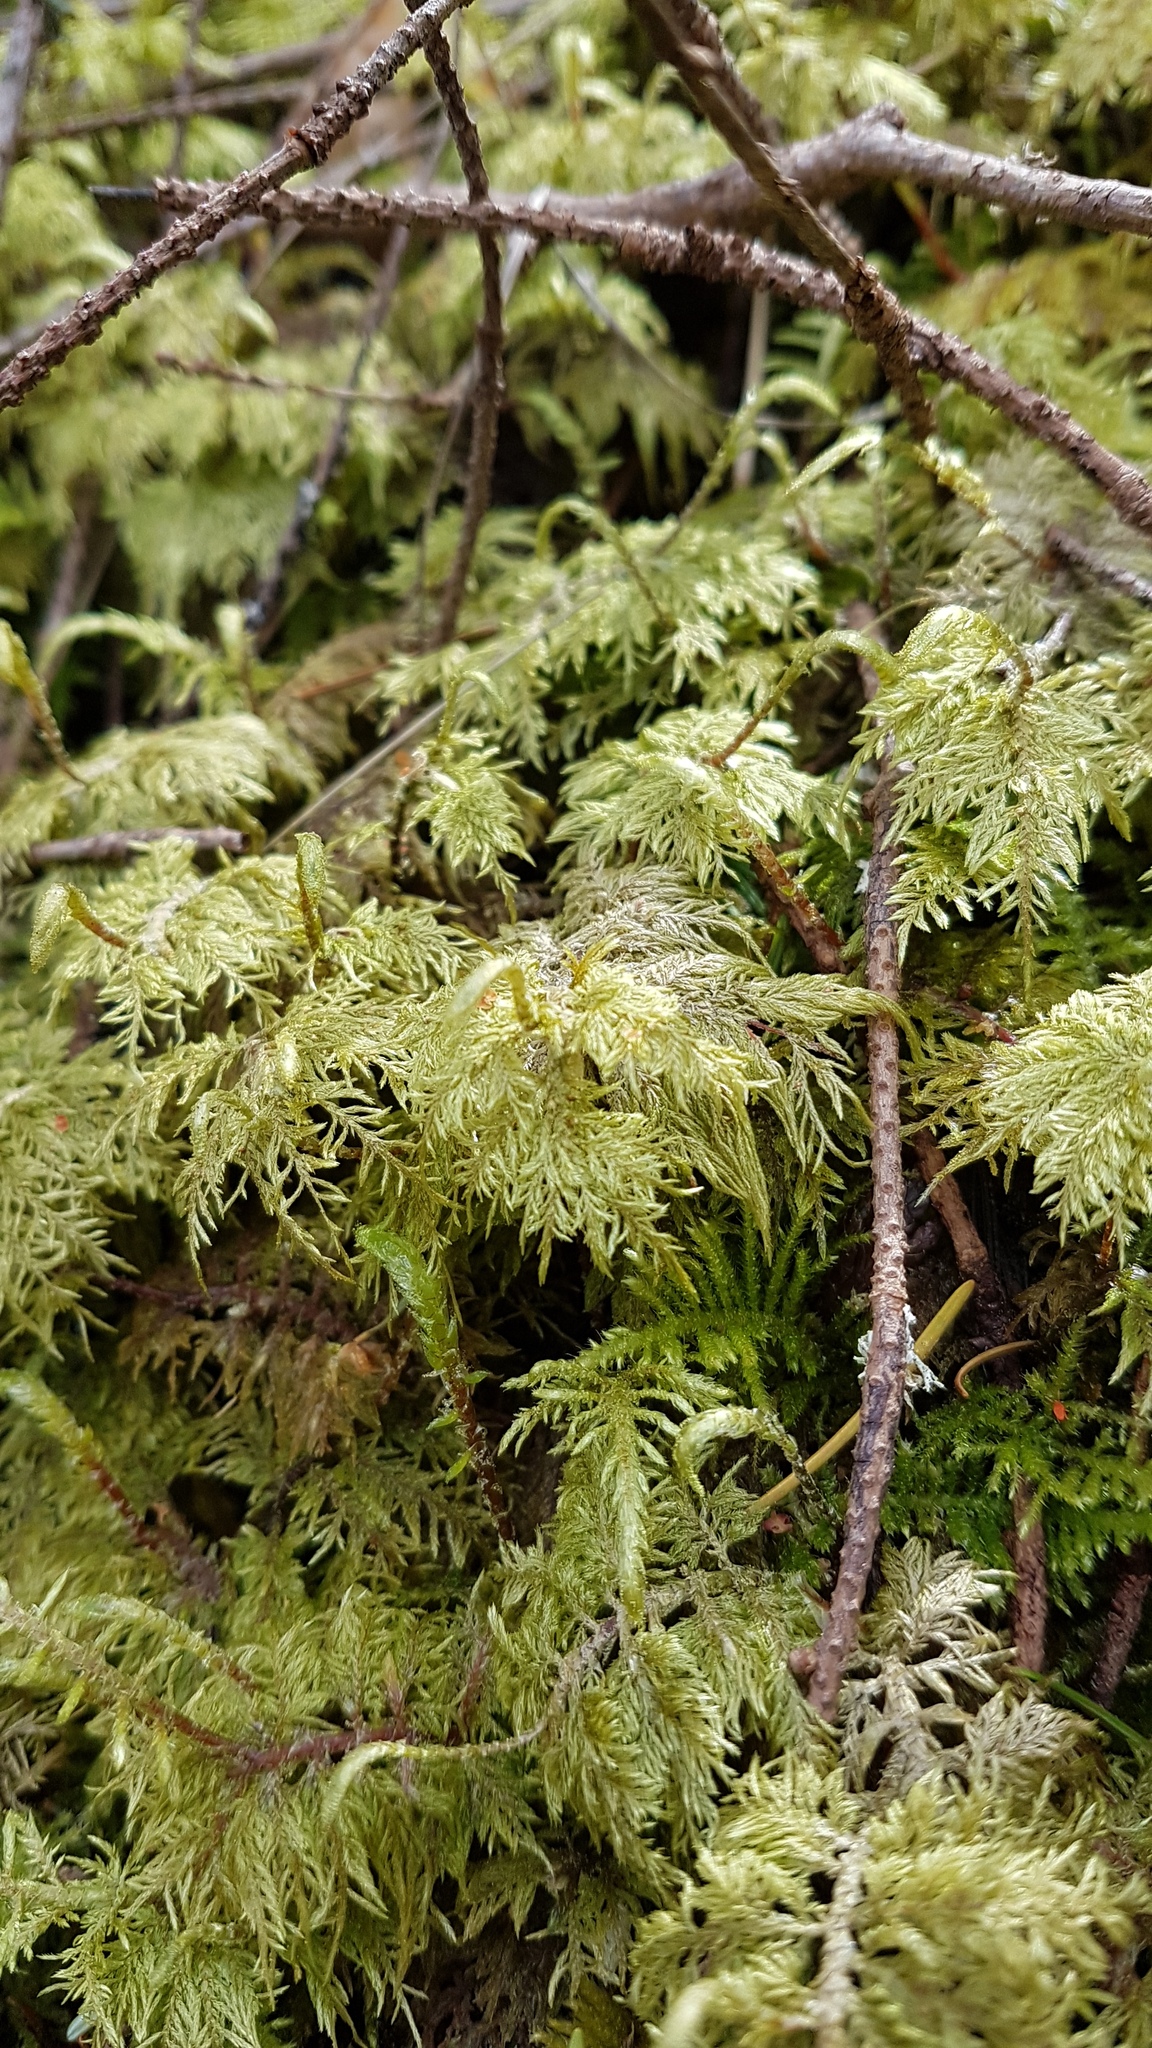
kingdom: Plantae
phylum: Bryophyta
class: Bryopsida
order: Hypnales
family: Hylocomiaceae
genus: Hylocomium
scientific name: Hylocomium splendens
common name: Stairstep moss
